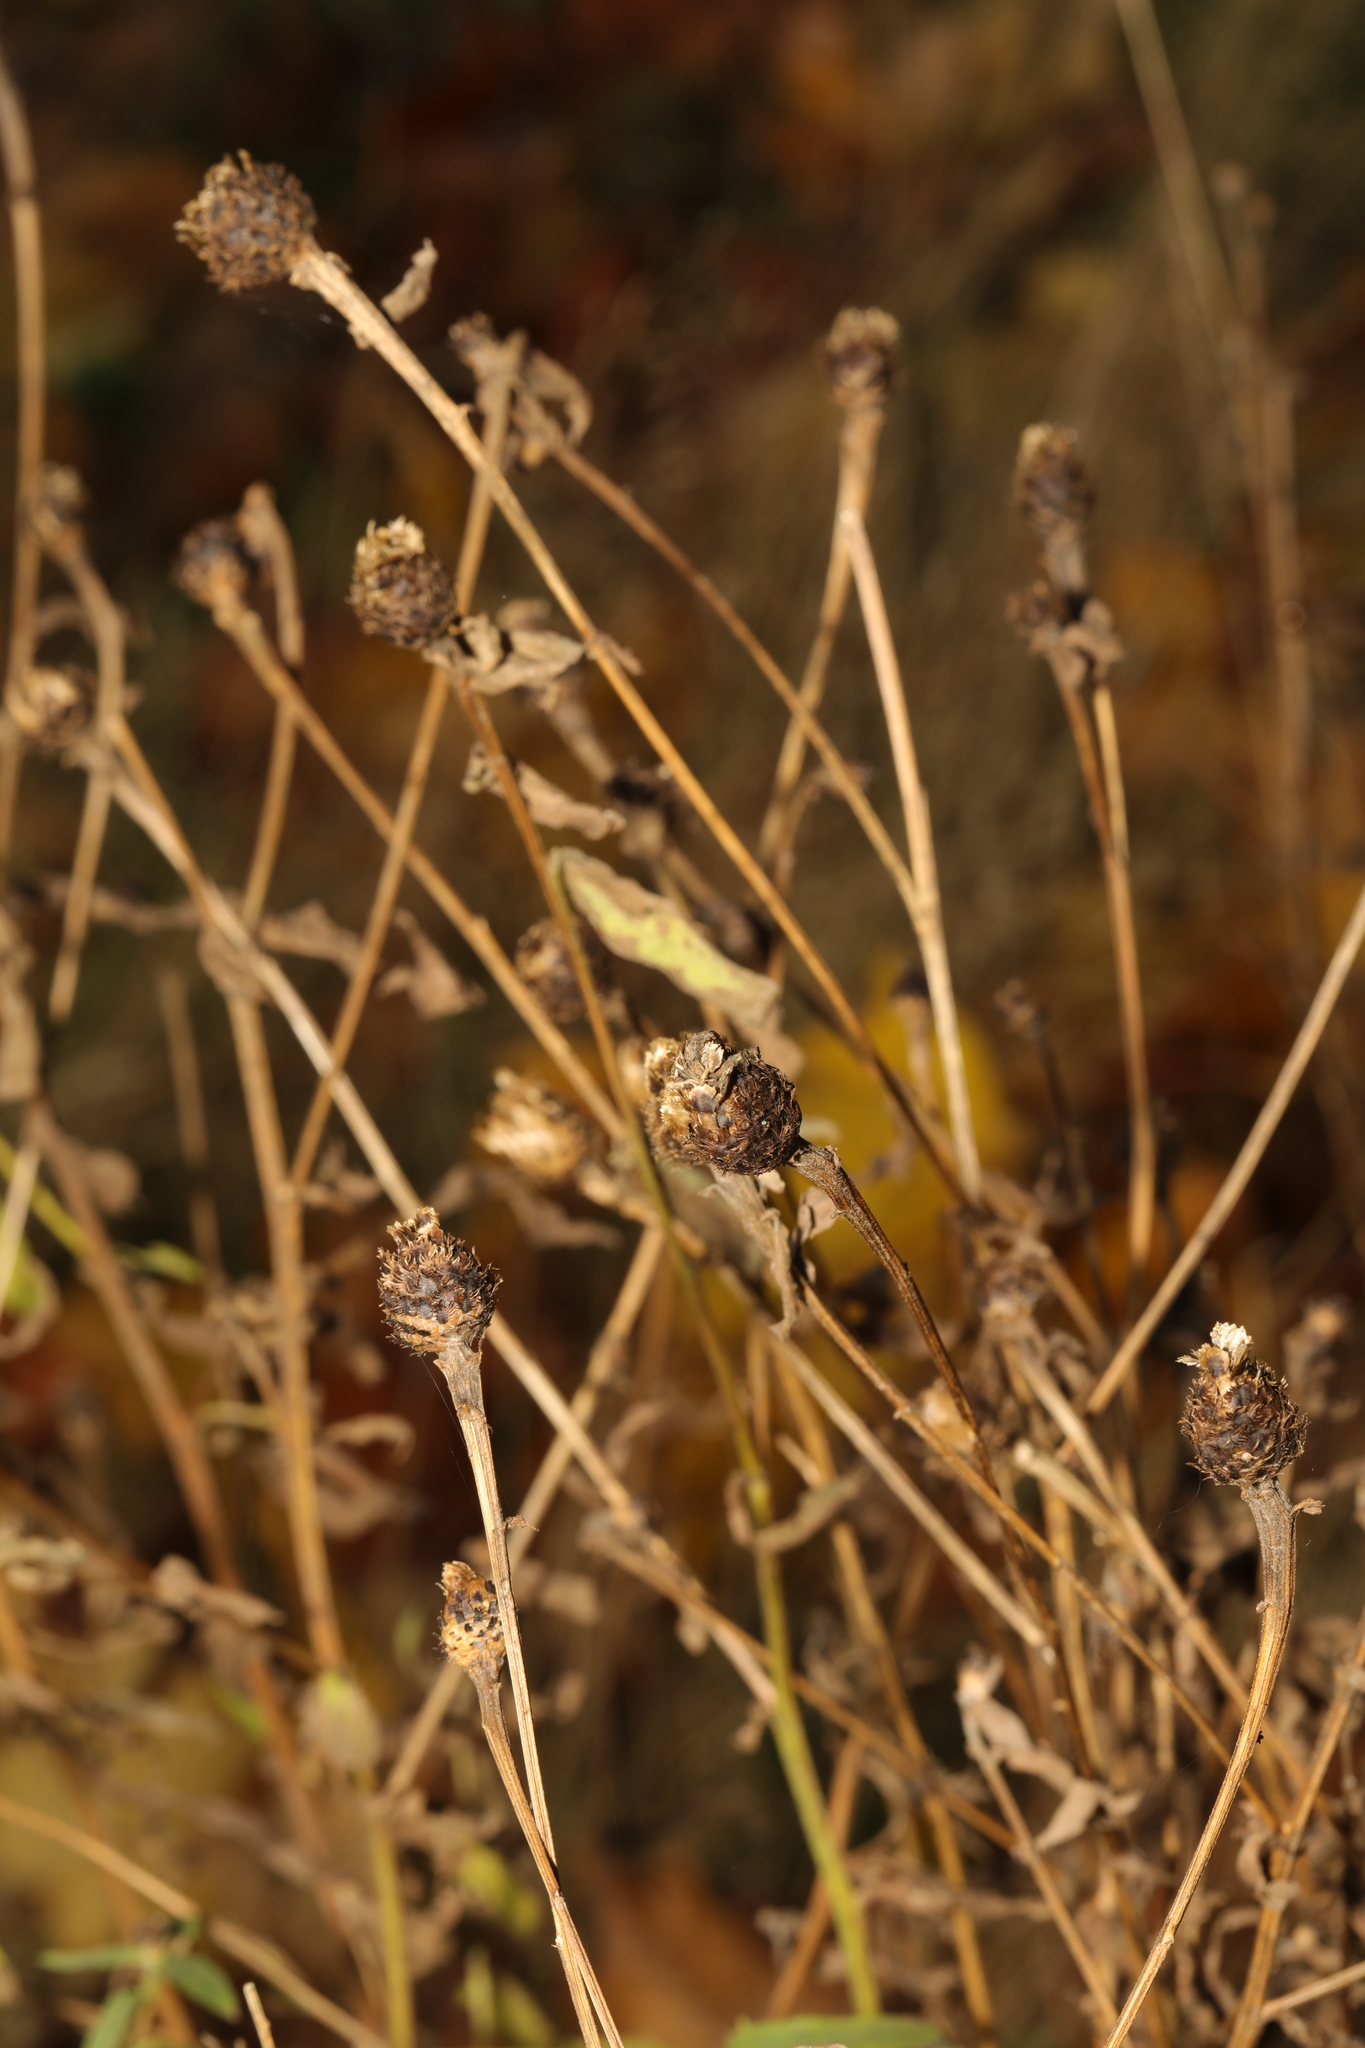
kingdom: Plantae
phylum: Tracheophyta
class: Magnoliopsida
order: Asterales
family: Asteraceae
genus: Centaurea
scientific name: Centaurea nigra
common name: Lesser knapweed
